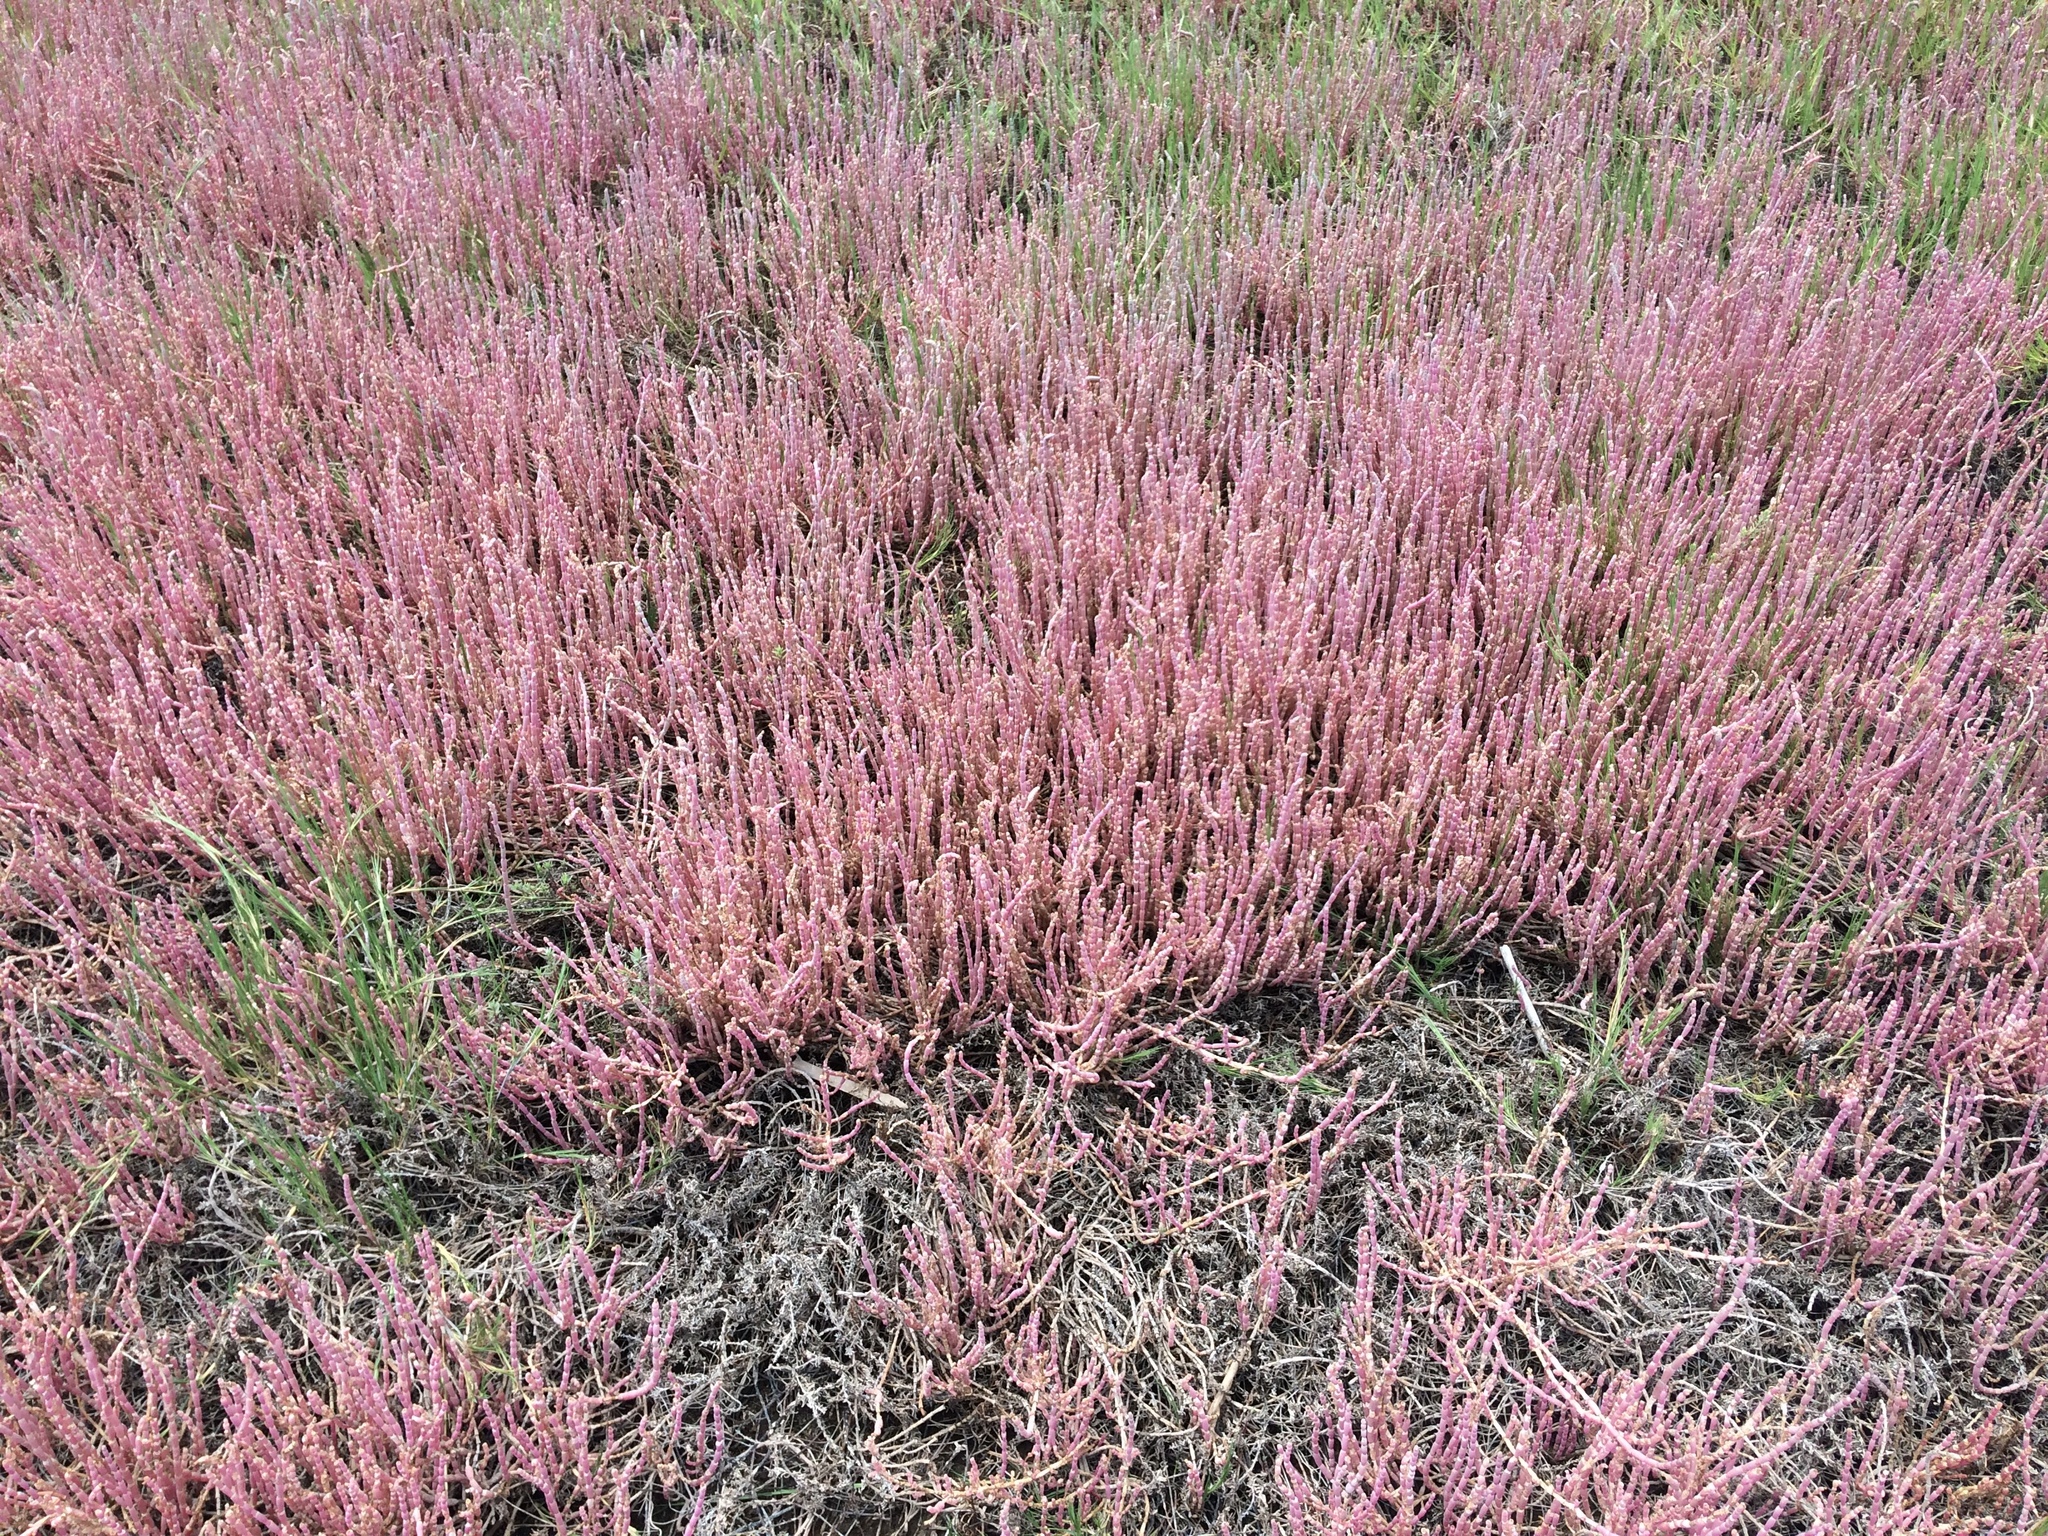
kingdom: Plantae
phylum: Tracheophyta
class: Magnoliopsida
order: Caryophyllales
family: Amaranthaceae
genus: Salicornia
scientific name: Salicornia decumbens
